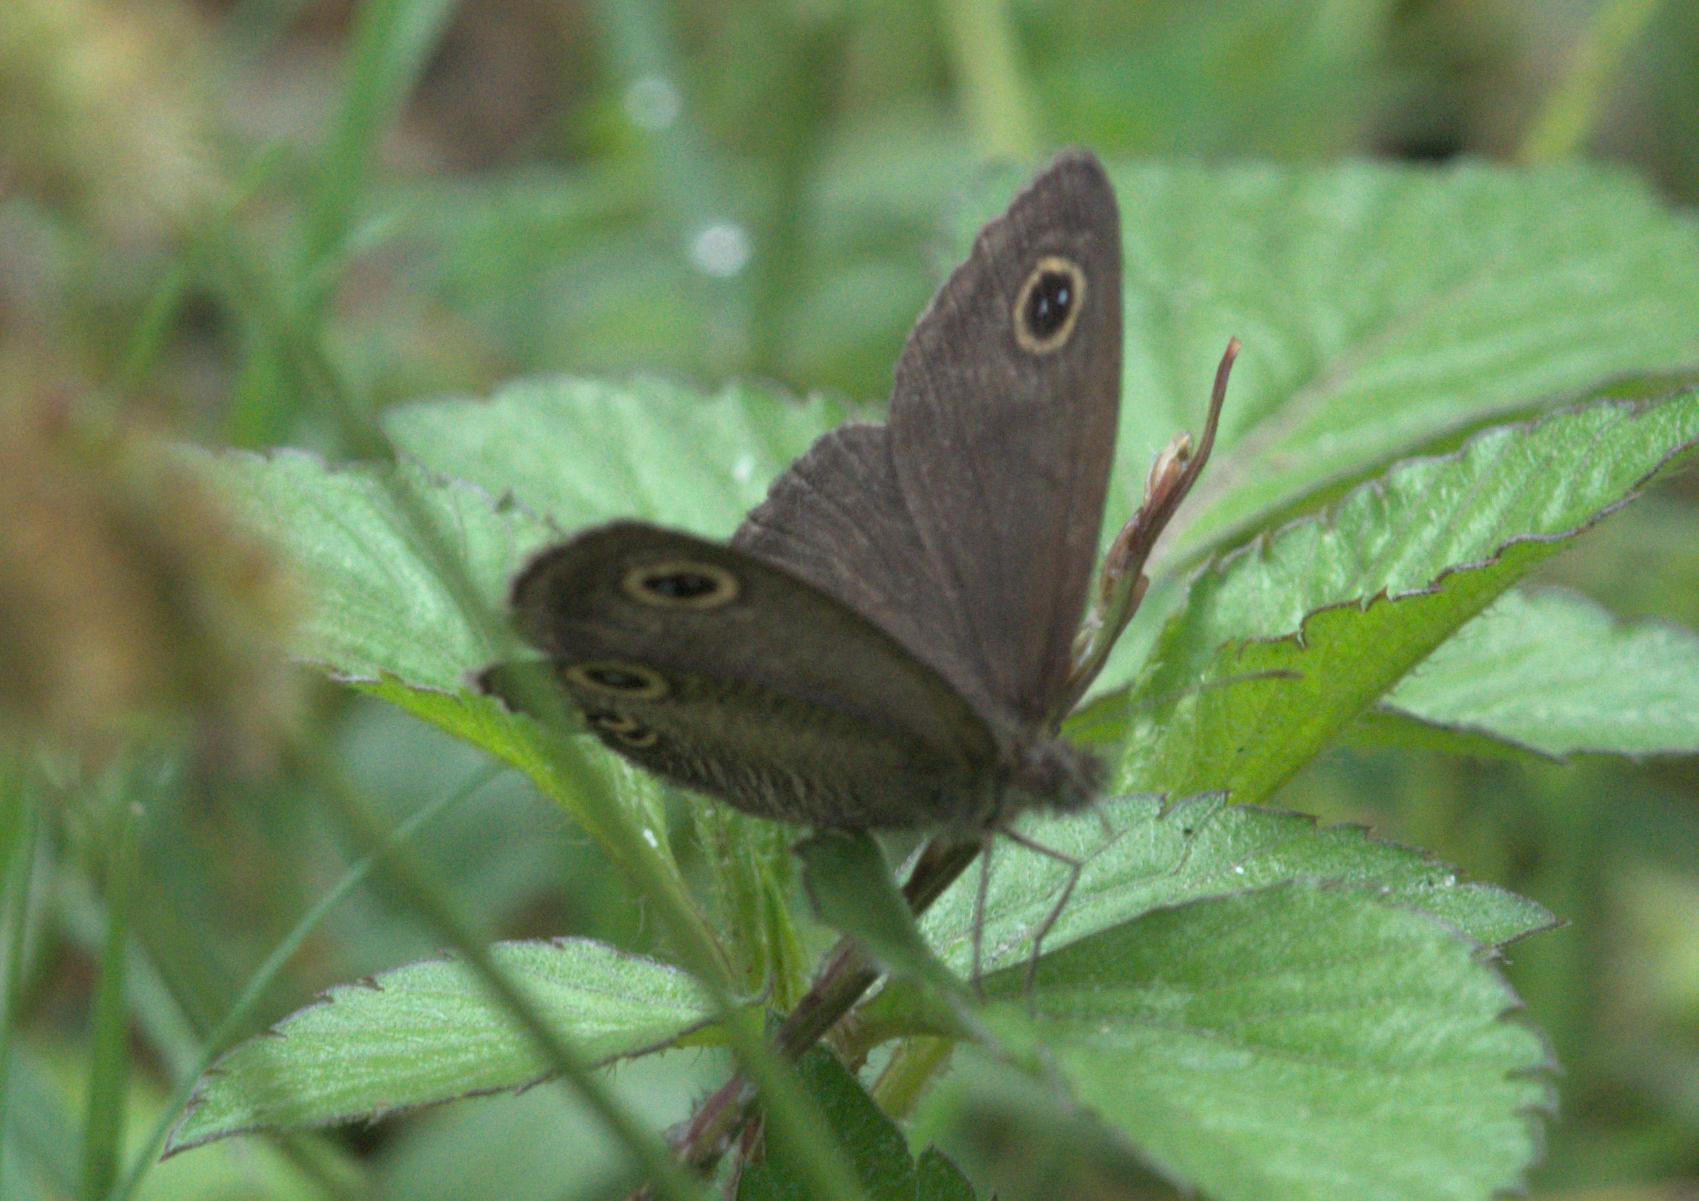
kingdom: Animalia
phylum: Arthropoda
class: Insecta
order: Lepidoptera
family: Nymphalidae
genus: Ypthima
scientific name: Ypthima nareda
